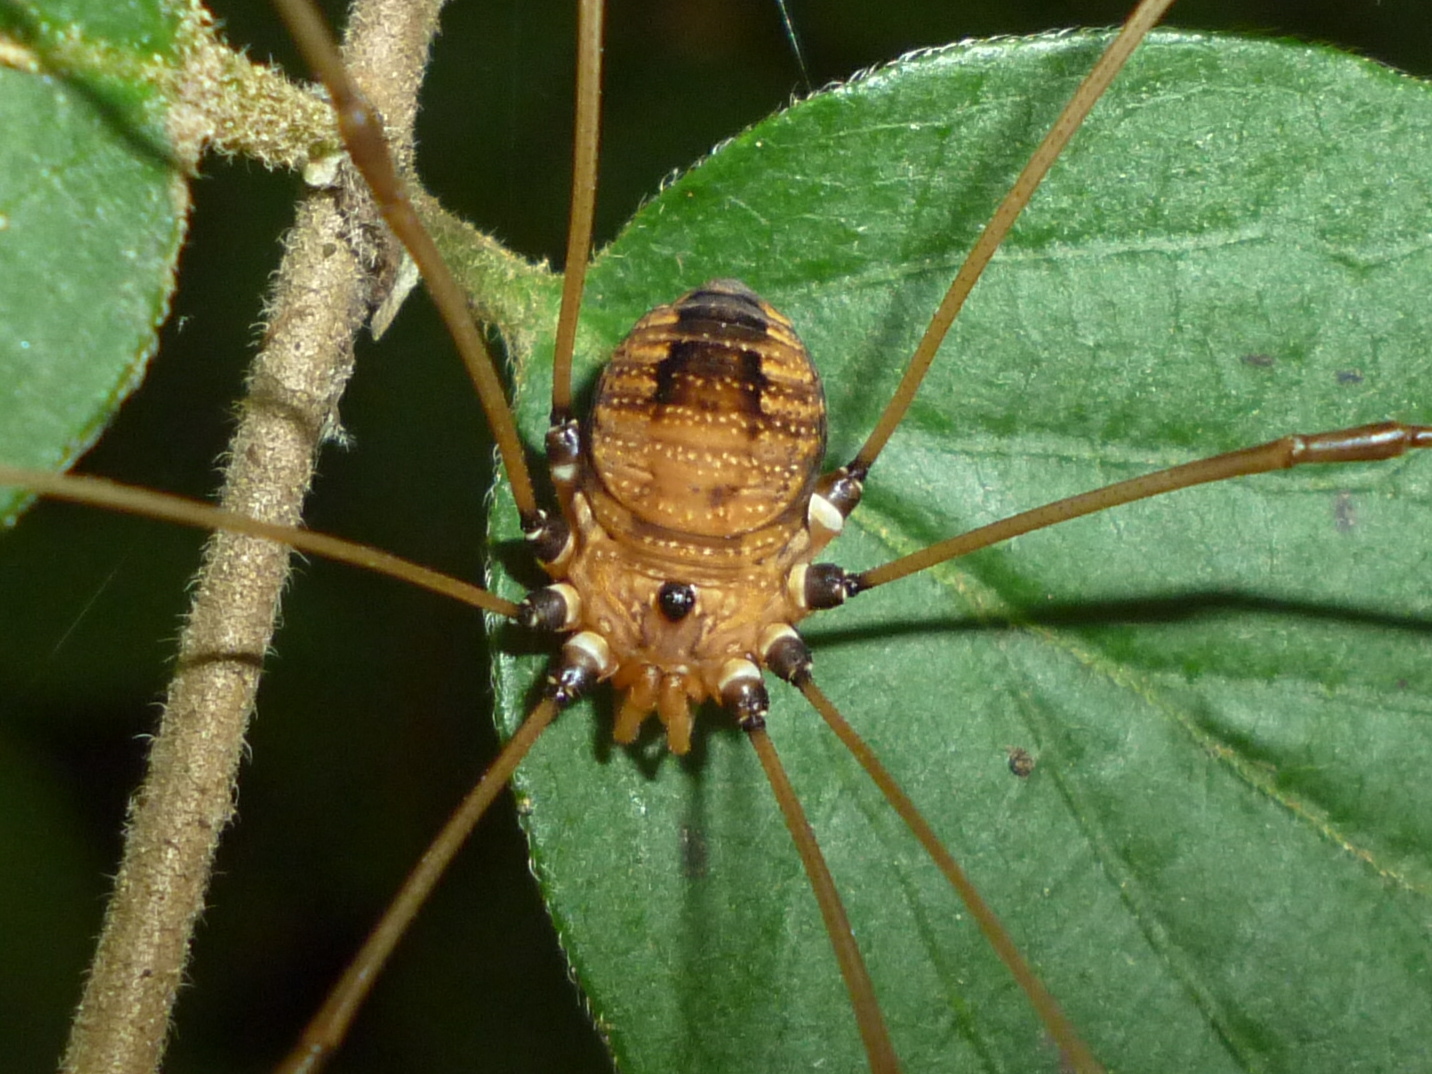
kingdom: Animalia
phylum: Arthropoda
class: Arachnida
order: Opiliones
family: Sclerosomatidae
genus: Leiobunum
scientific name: Leiobunum euserratipalpe
